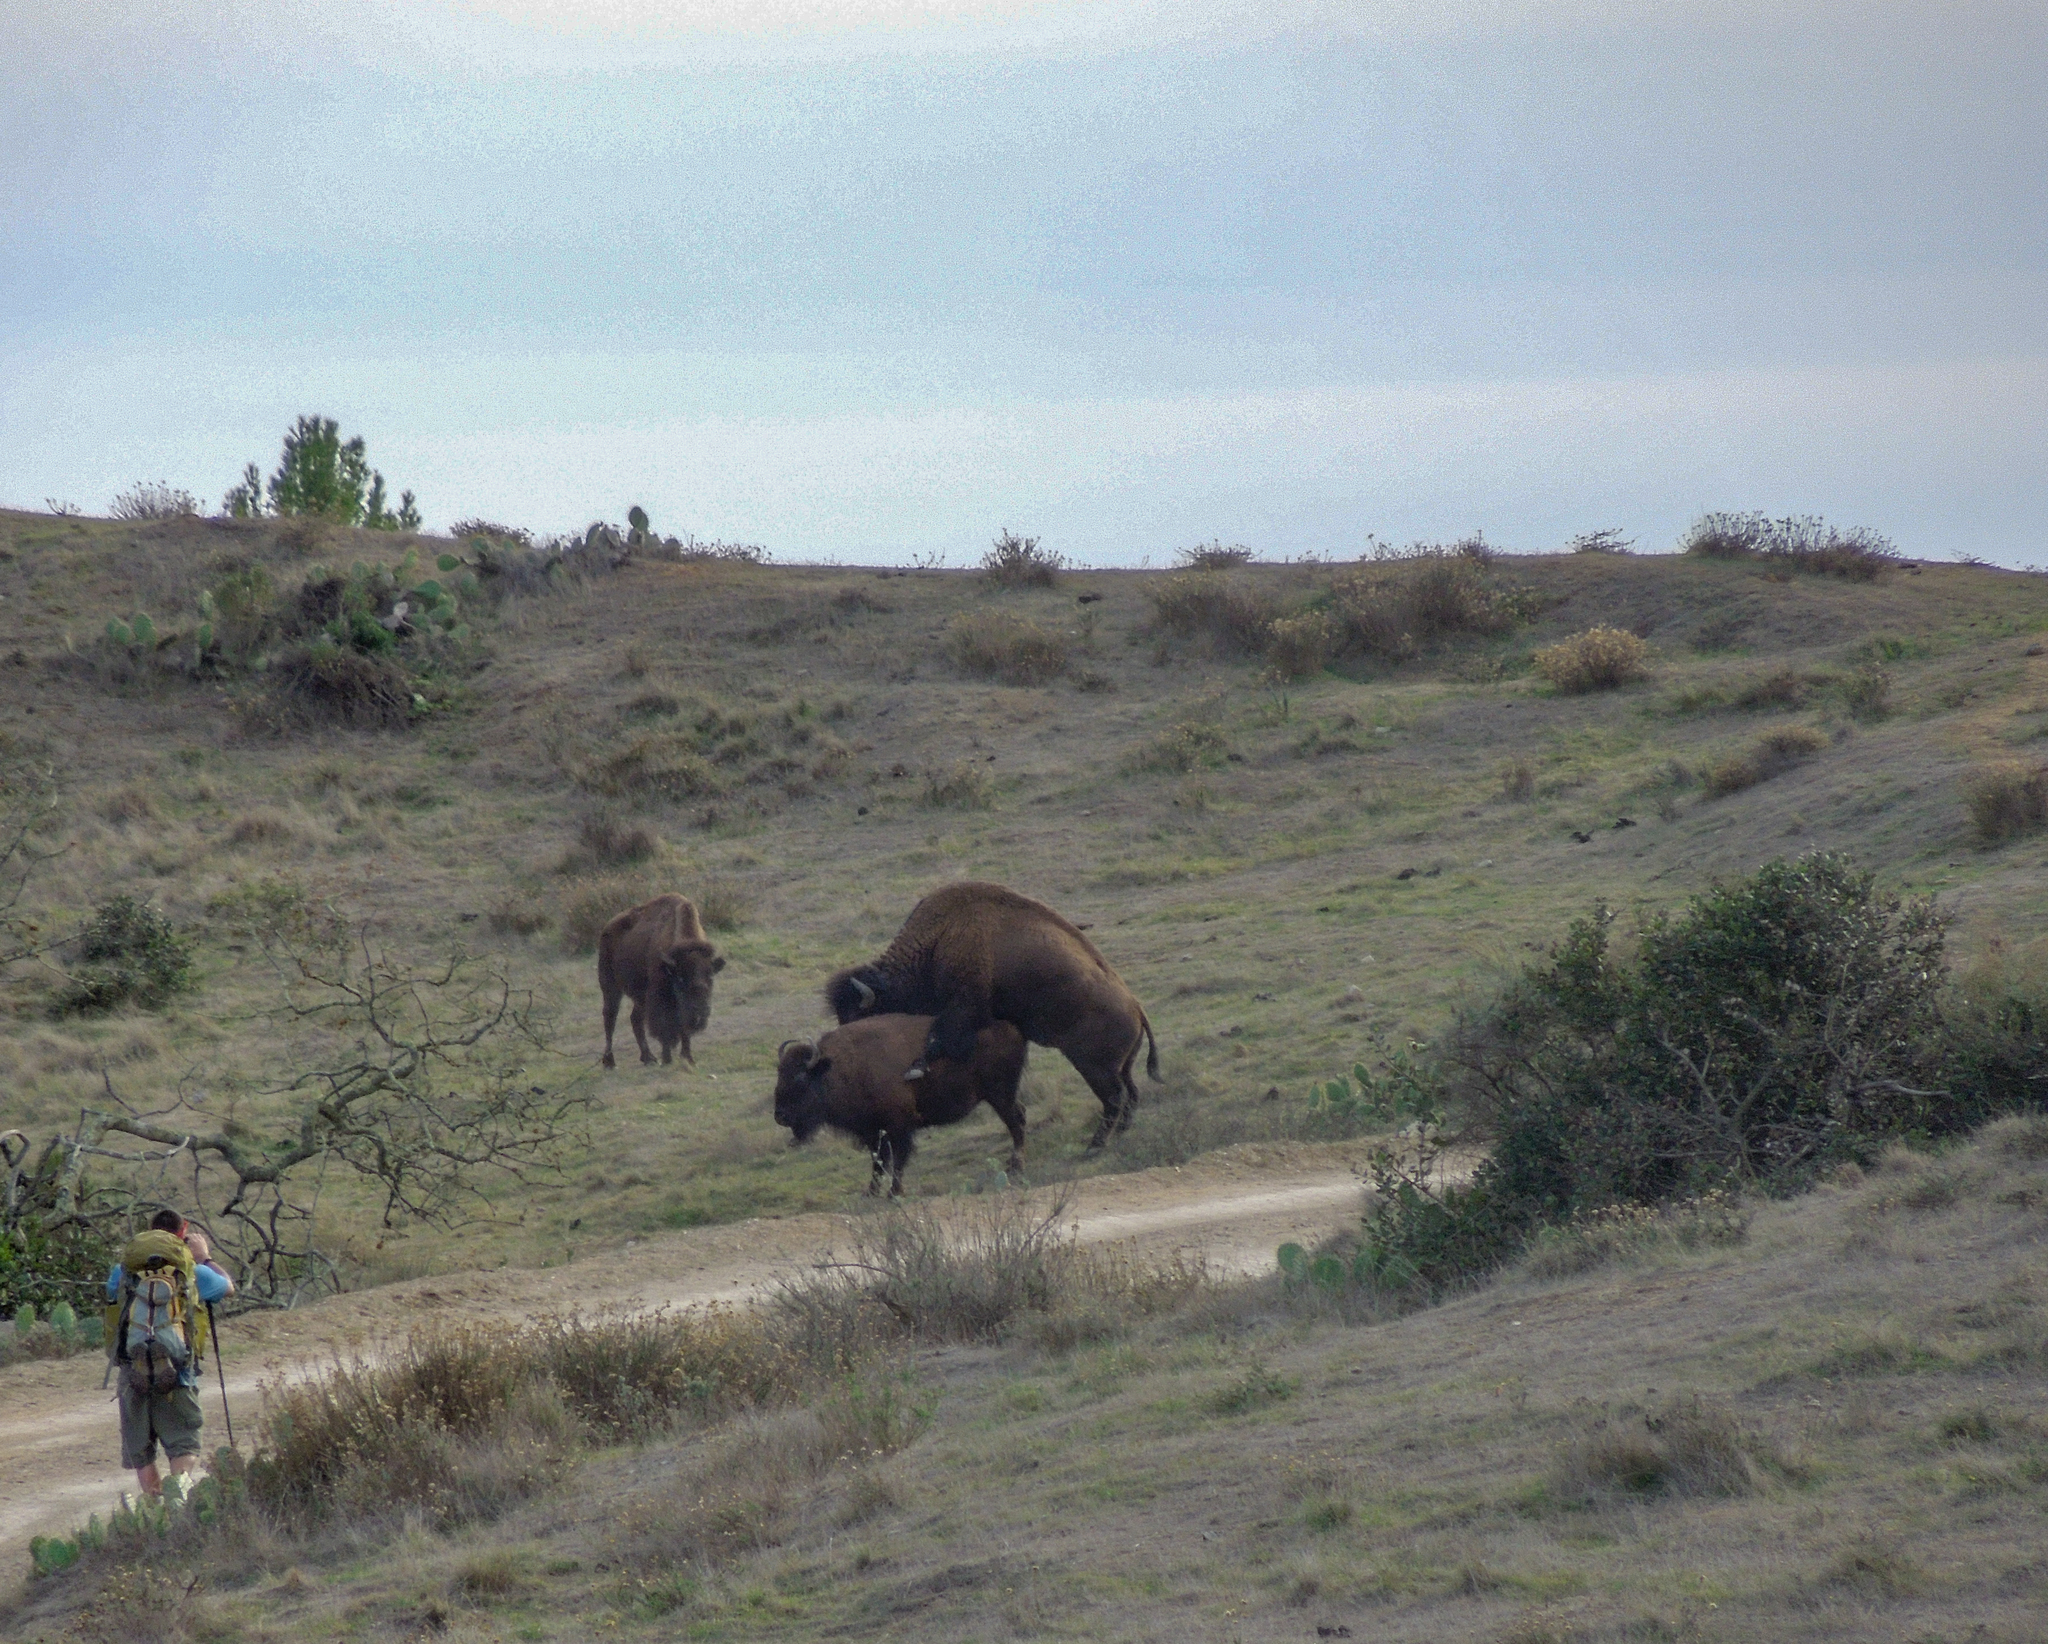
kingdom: Animalia
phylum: Chordata
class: Mammalia
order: Artiodactyla
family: Bovidae
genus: Bison
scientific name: Bison bison
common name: American bison
